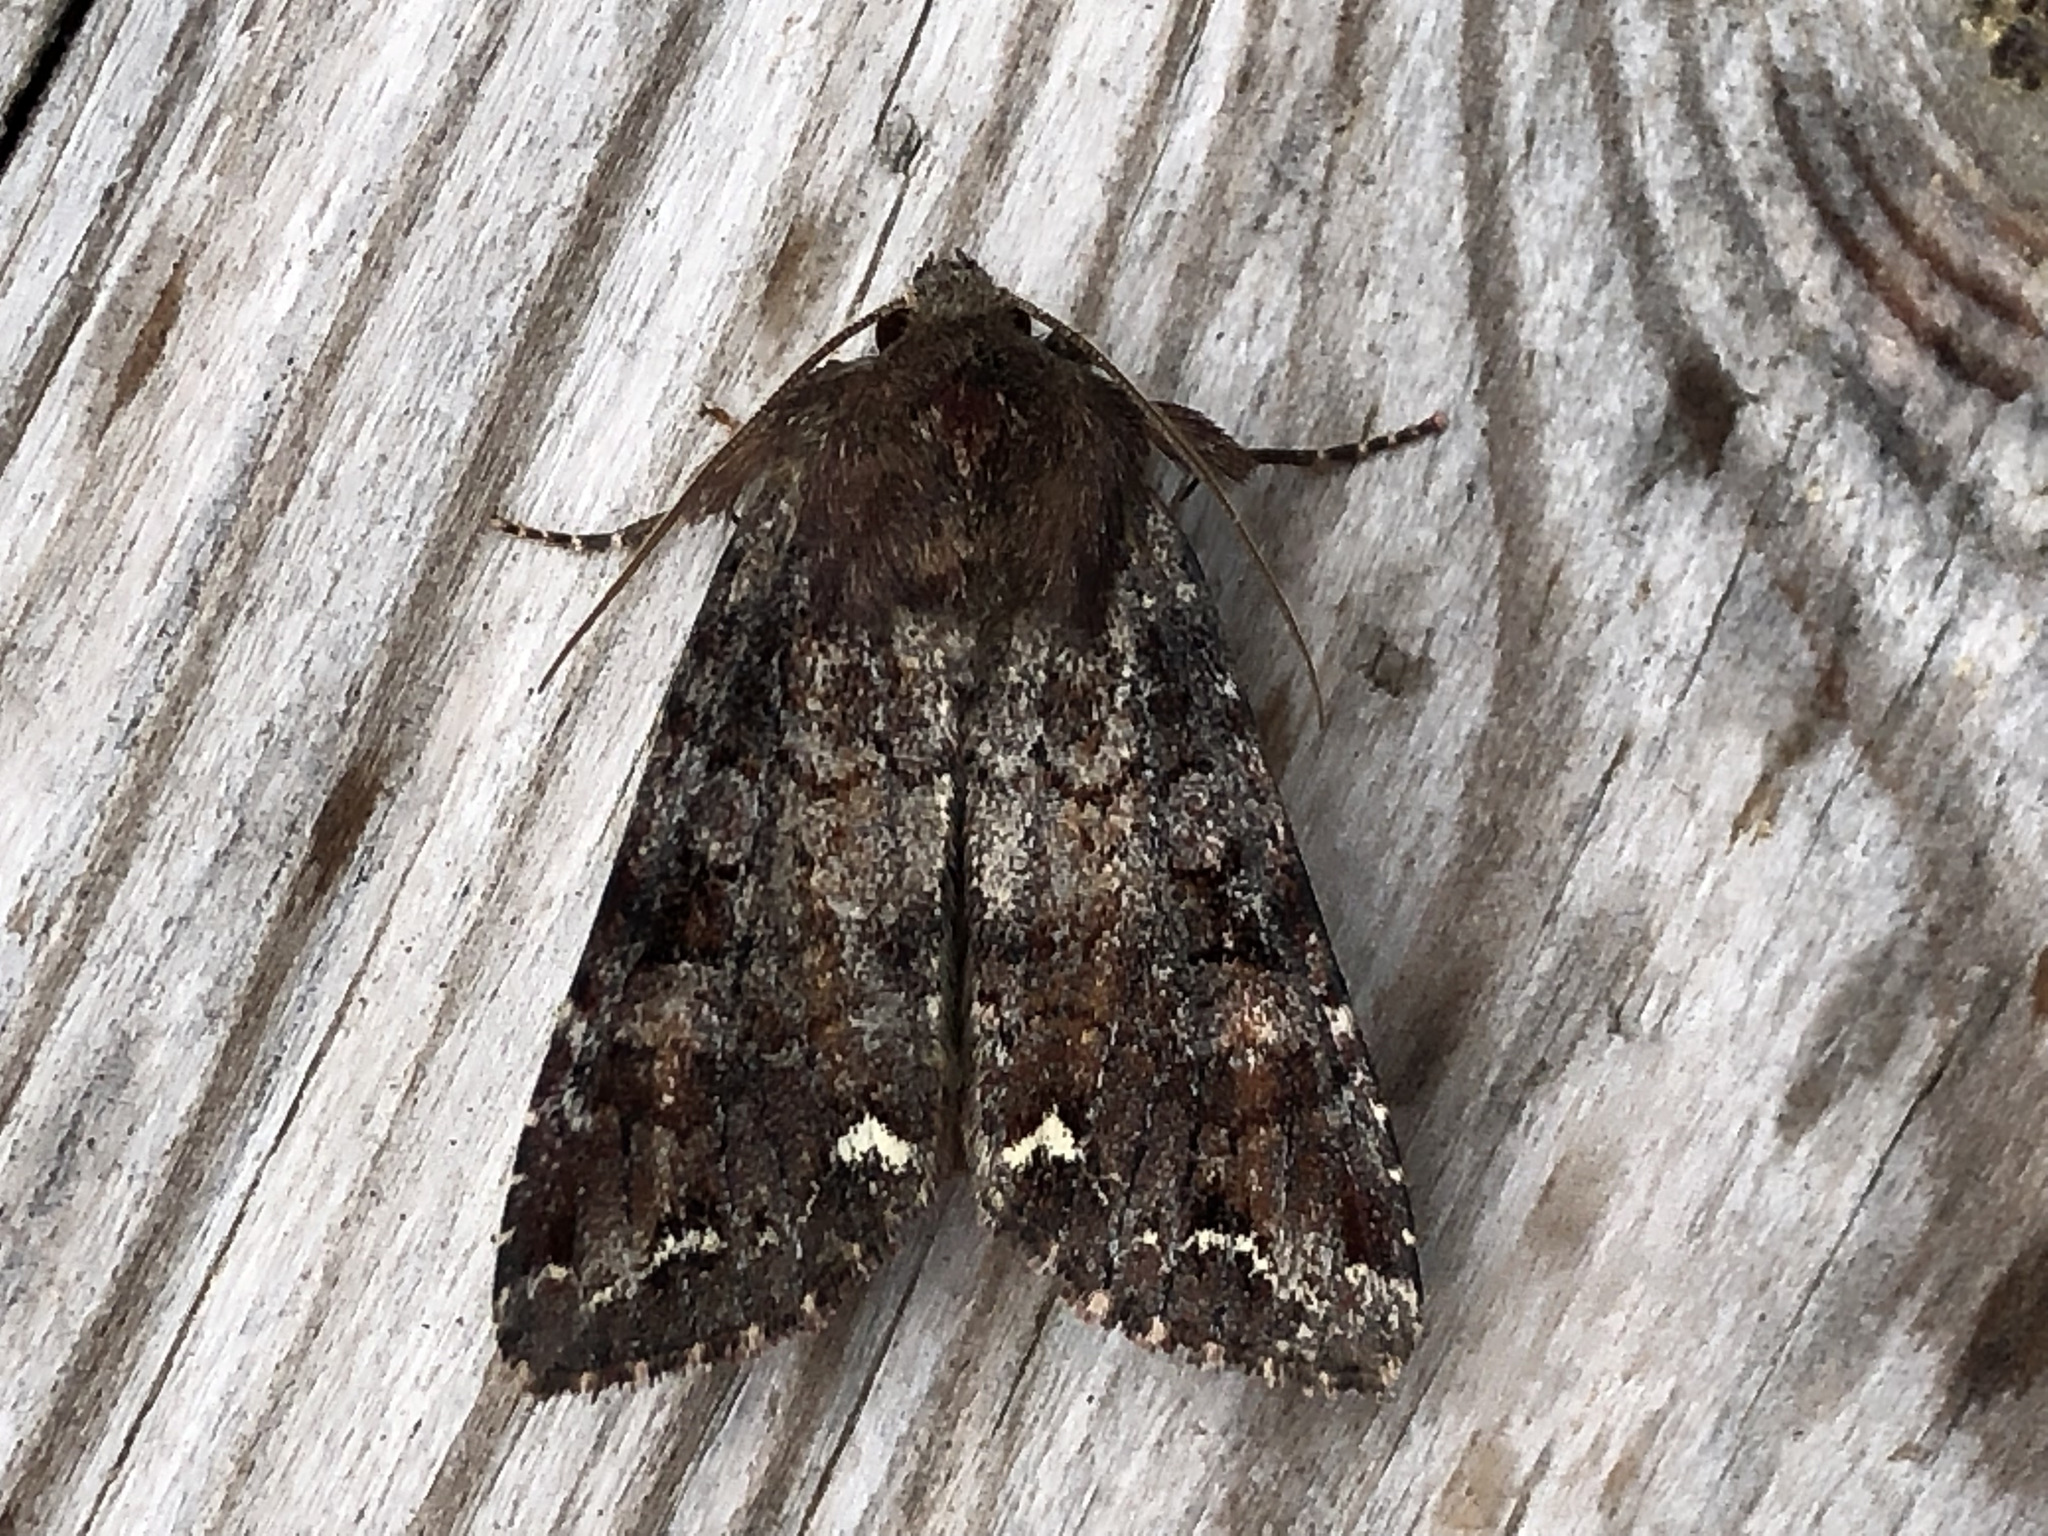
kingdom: Animalia
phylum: Arthropoda
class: Insecta
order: Lepidoptera
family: Noctuidae
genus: Ceramica
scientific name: Ceramica pisi
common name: Broom moth
